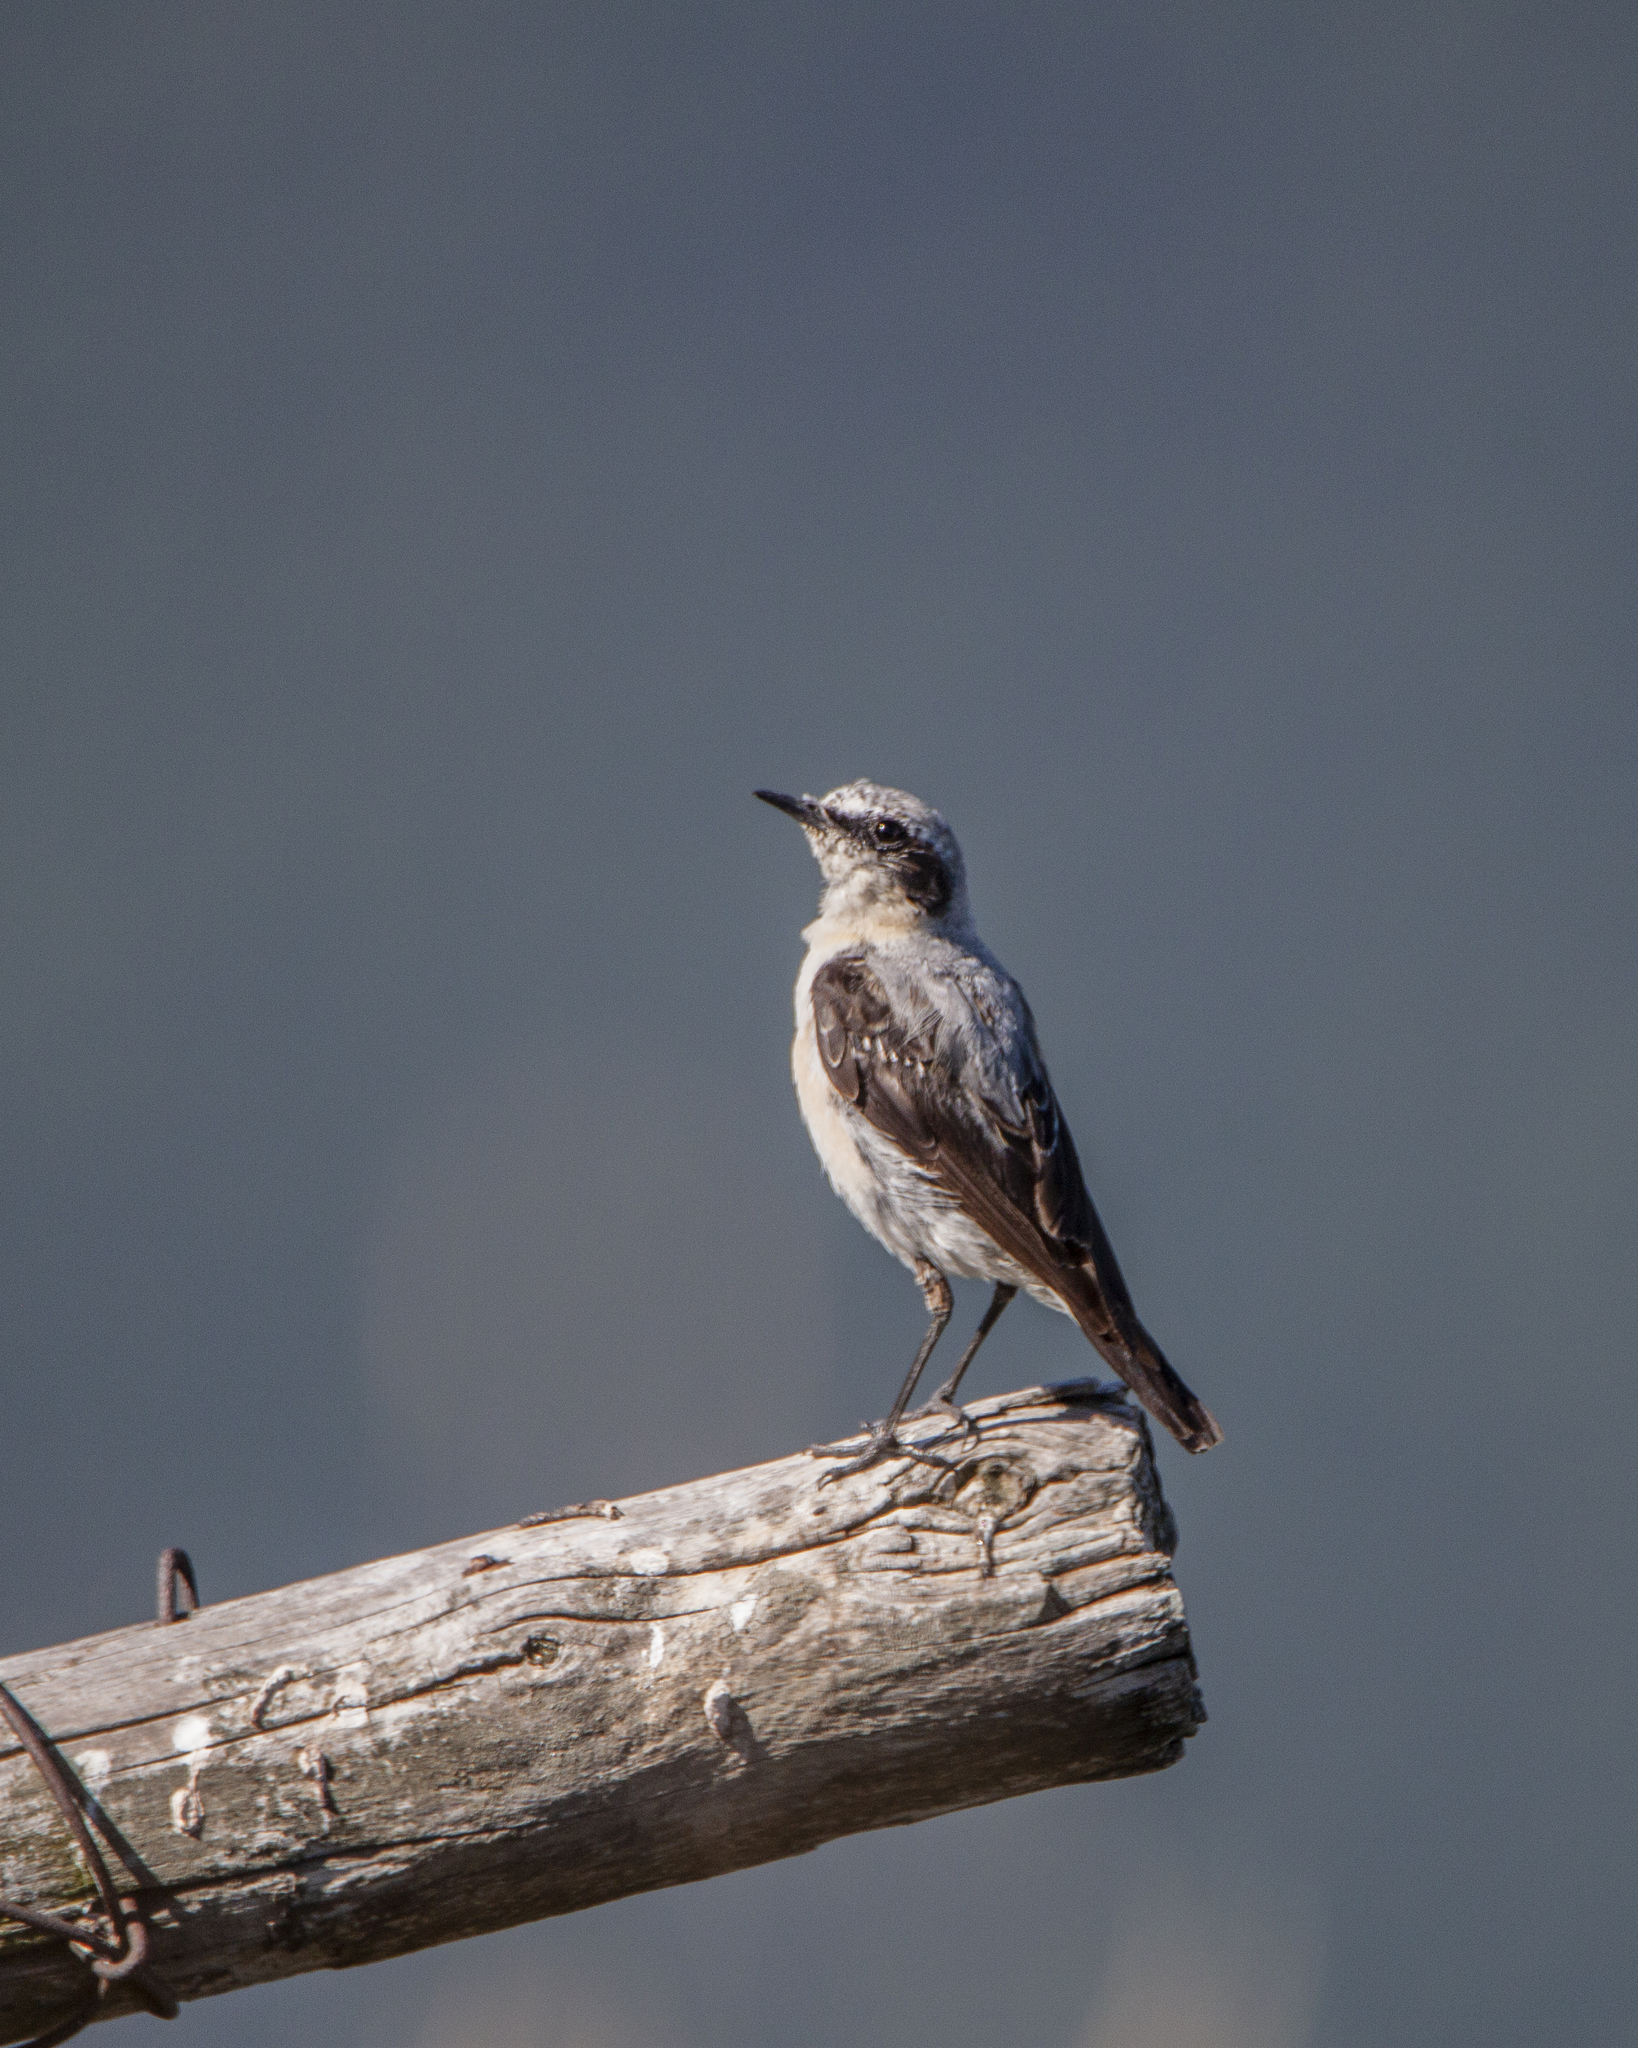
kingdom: Animalia
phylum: Chordata
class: Aves
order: Passeriformes
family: Muscicapidae
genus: Oenanthe
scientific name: Oenanthe oenanthe
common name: Northern wheatear
